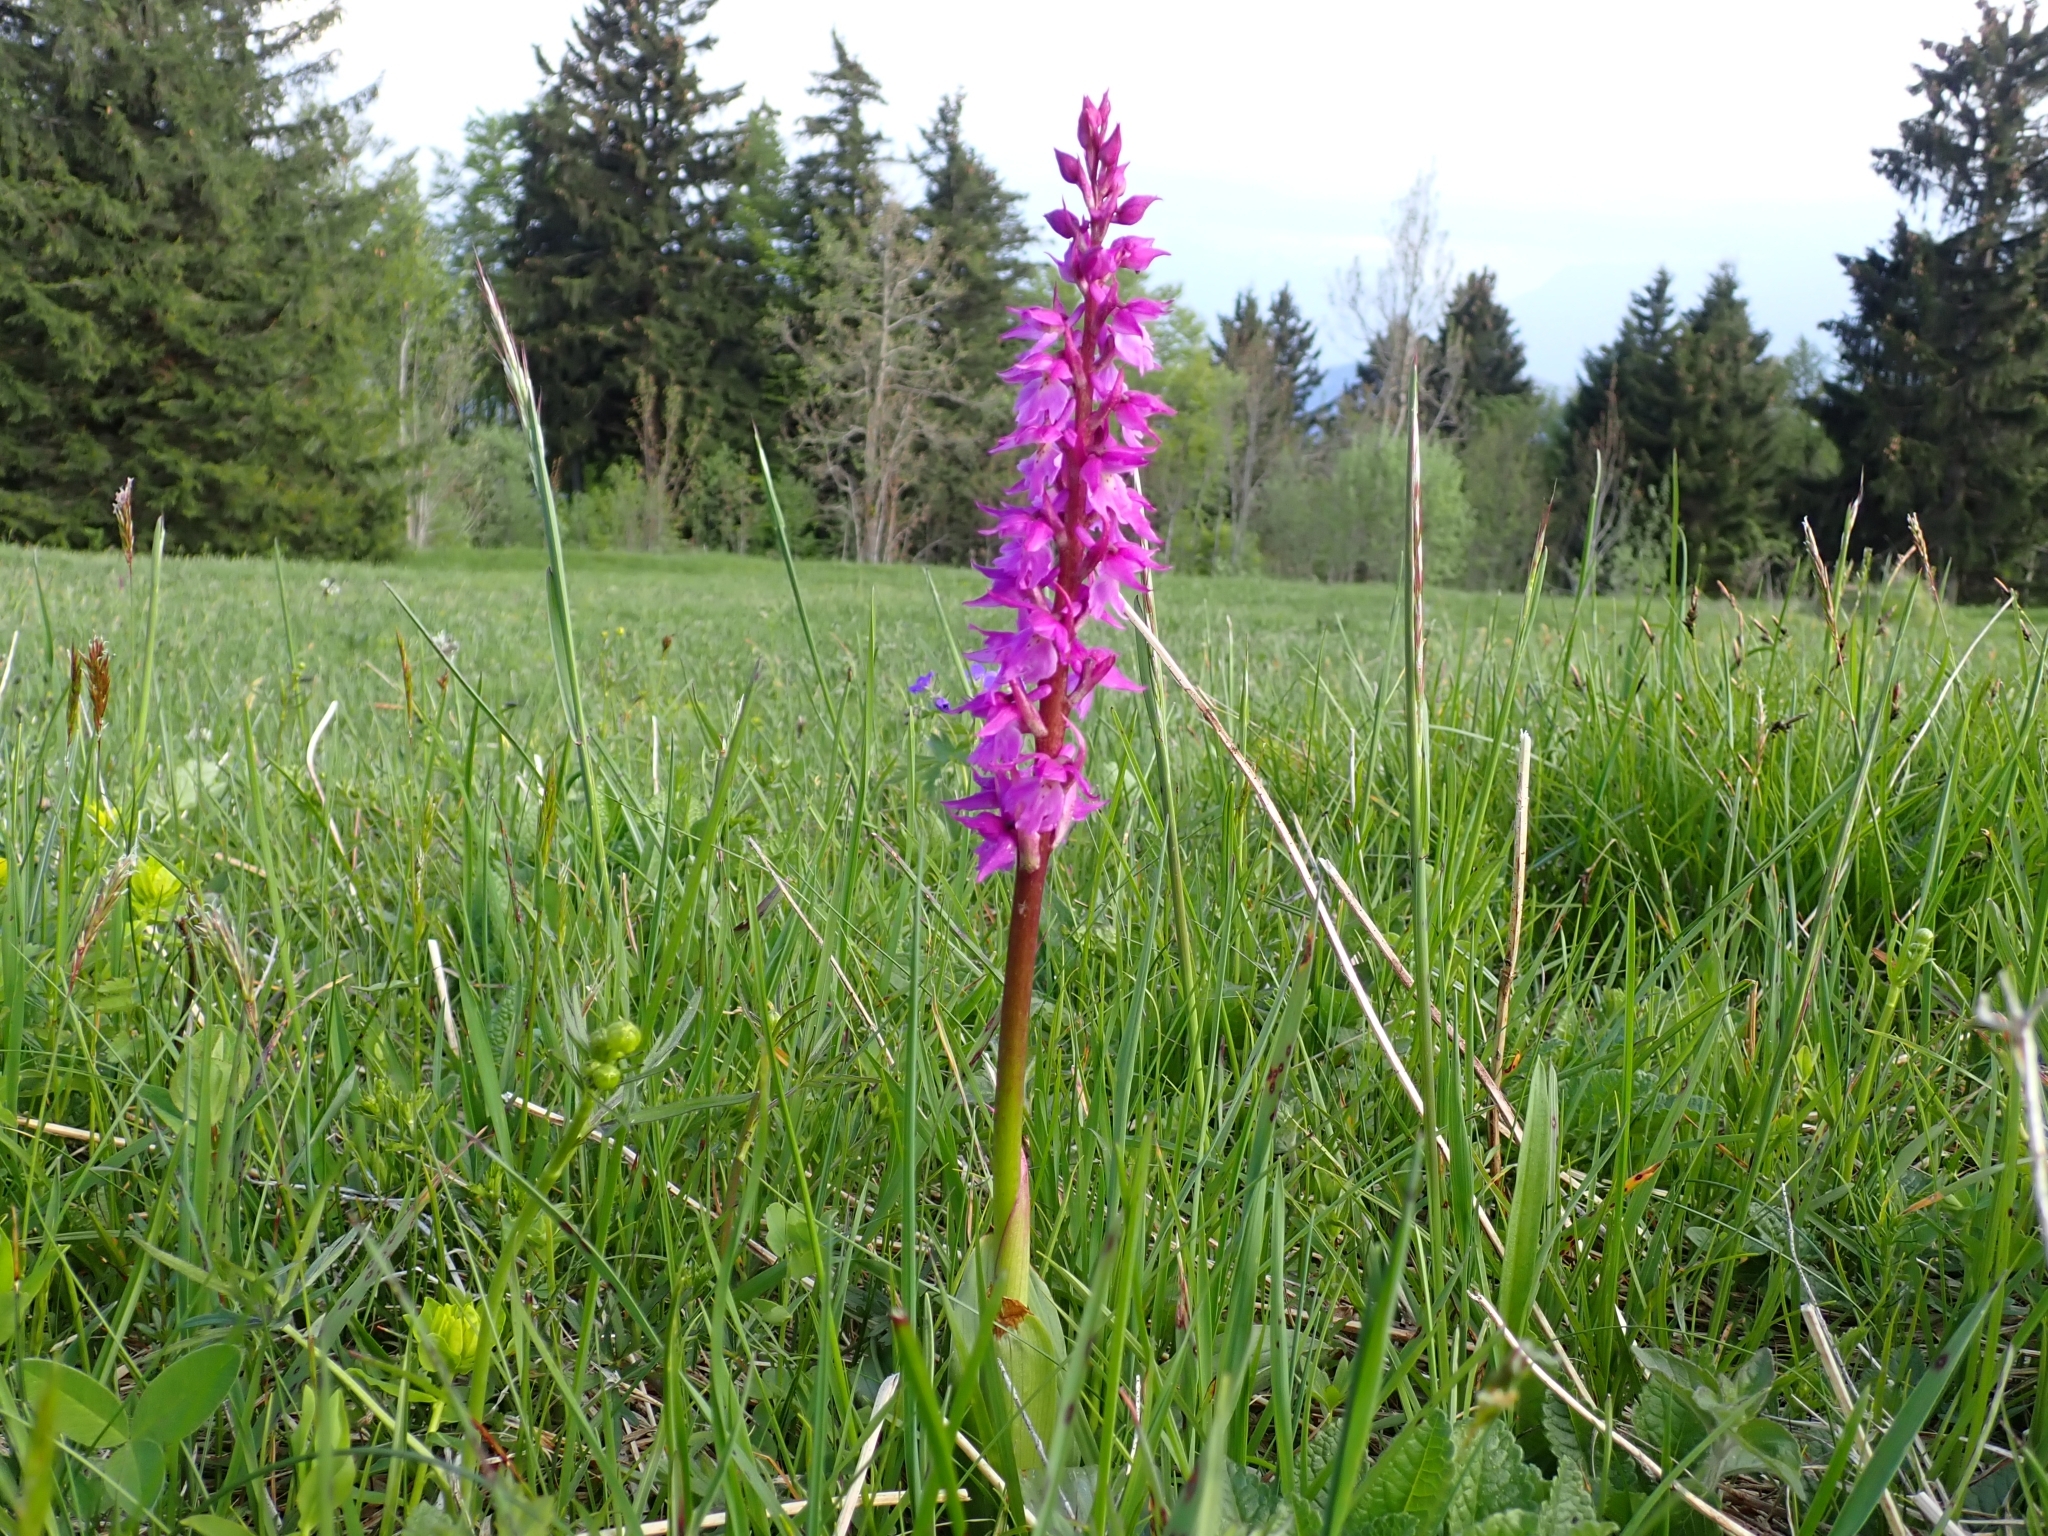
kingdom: Plantae
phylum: Tracheophyta
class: Liliopsida
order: Asparagales
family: Orchidaceae
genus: Orchis
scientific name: Orchis mascula
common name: Early-purple orchid
